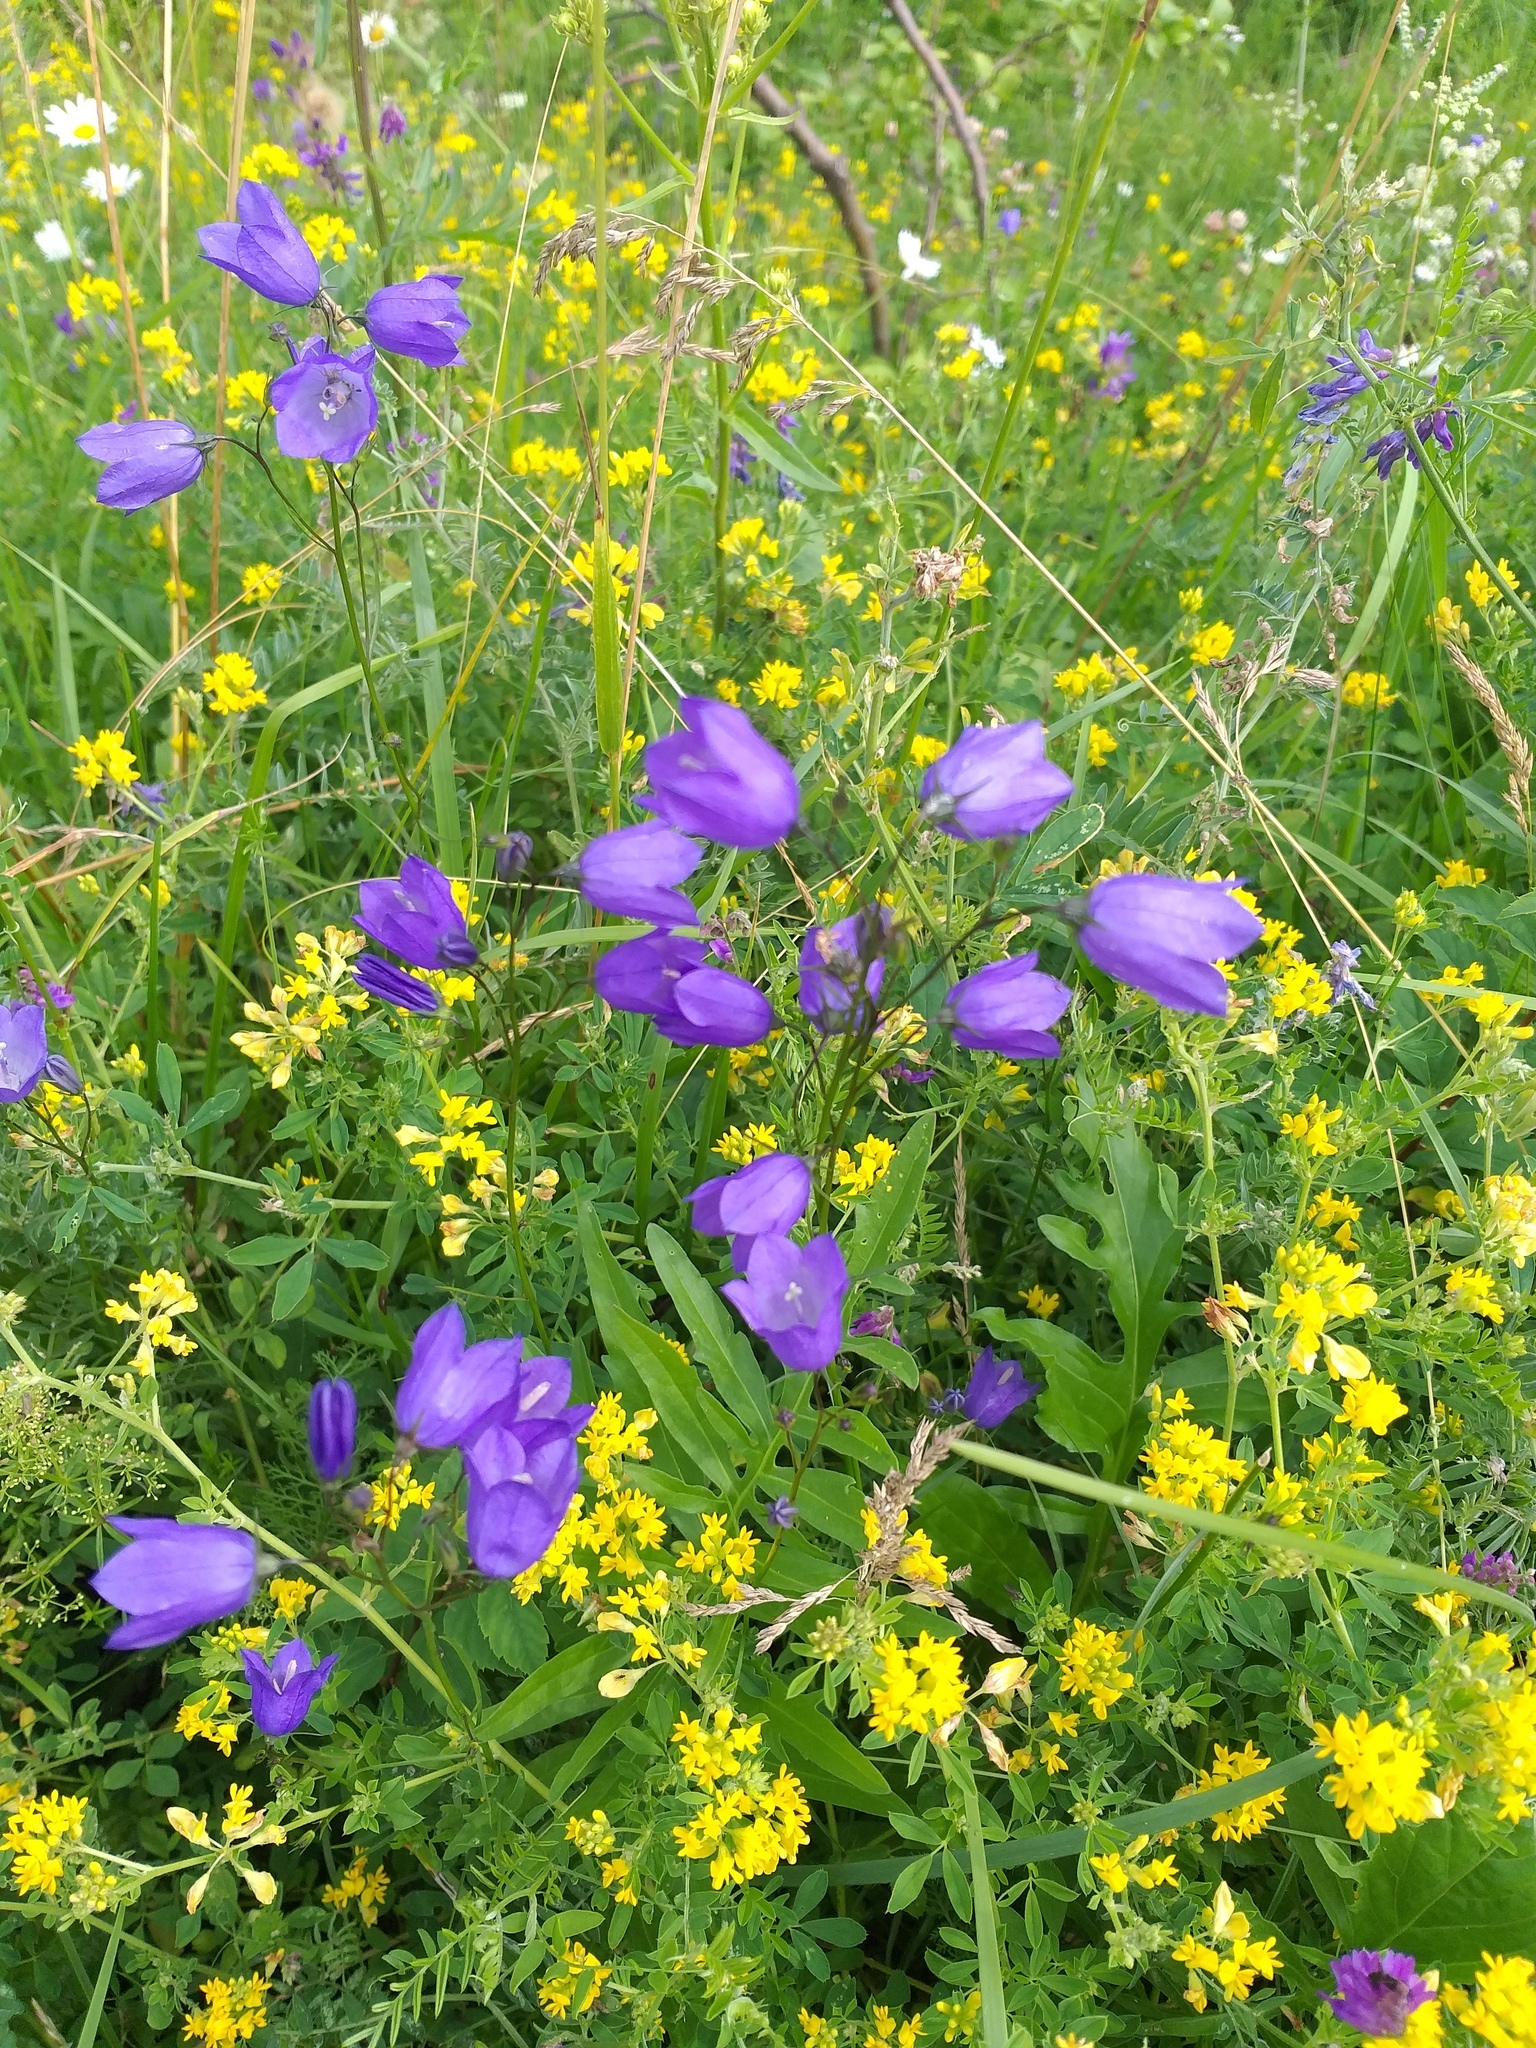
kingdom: Plantae
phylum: Tracheophyta
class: Magnoliopsida
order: Asterales
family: Campanulaceae
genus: Campanula
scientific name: Campanula rotundifolia
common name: Harebell
